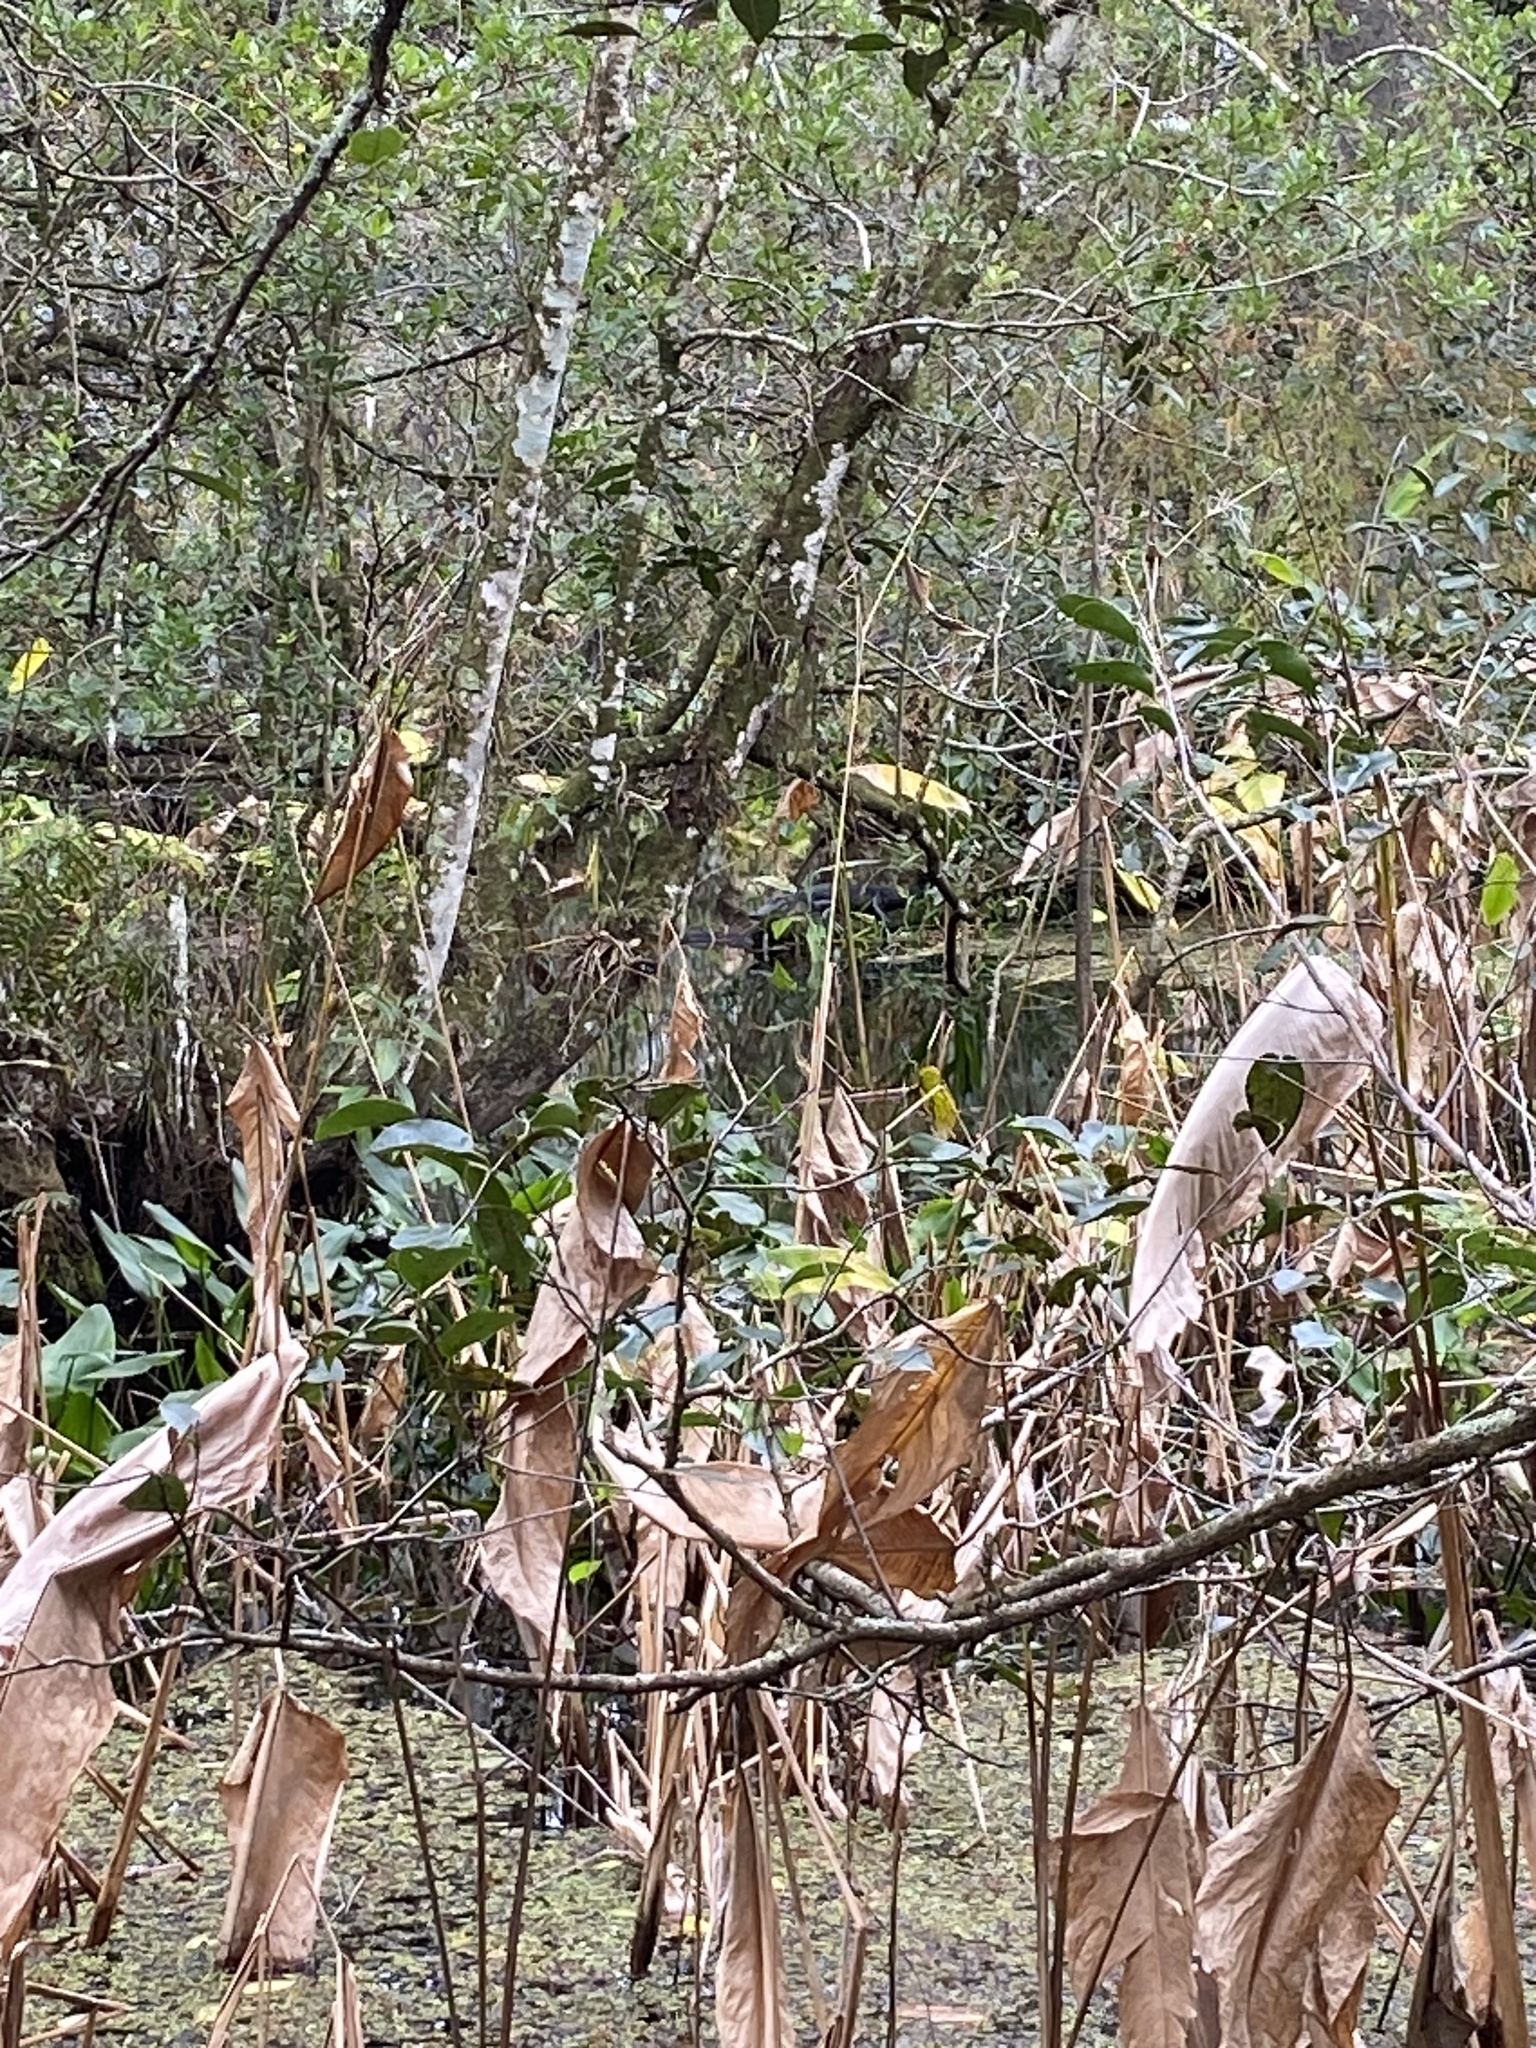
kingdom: Animalia
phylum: Chordata
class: Crocodylia
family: Alligatoridae
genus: Alligator
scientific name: Alligator mississippiensis
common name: American alligator
